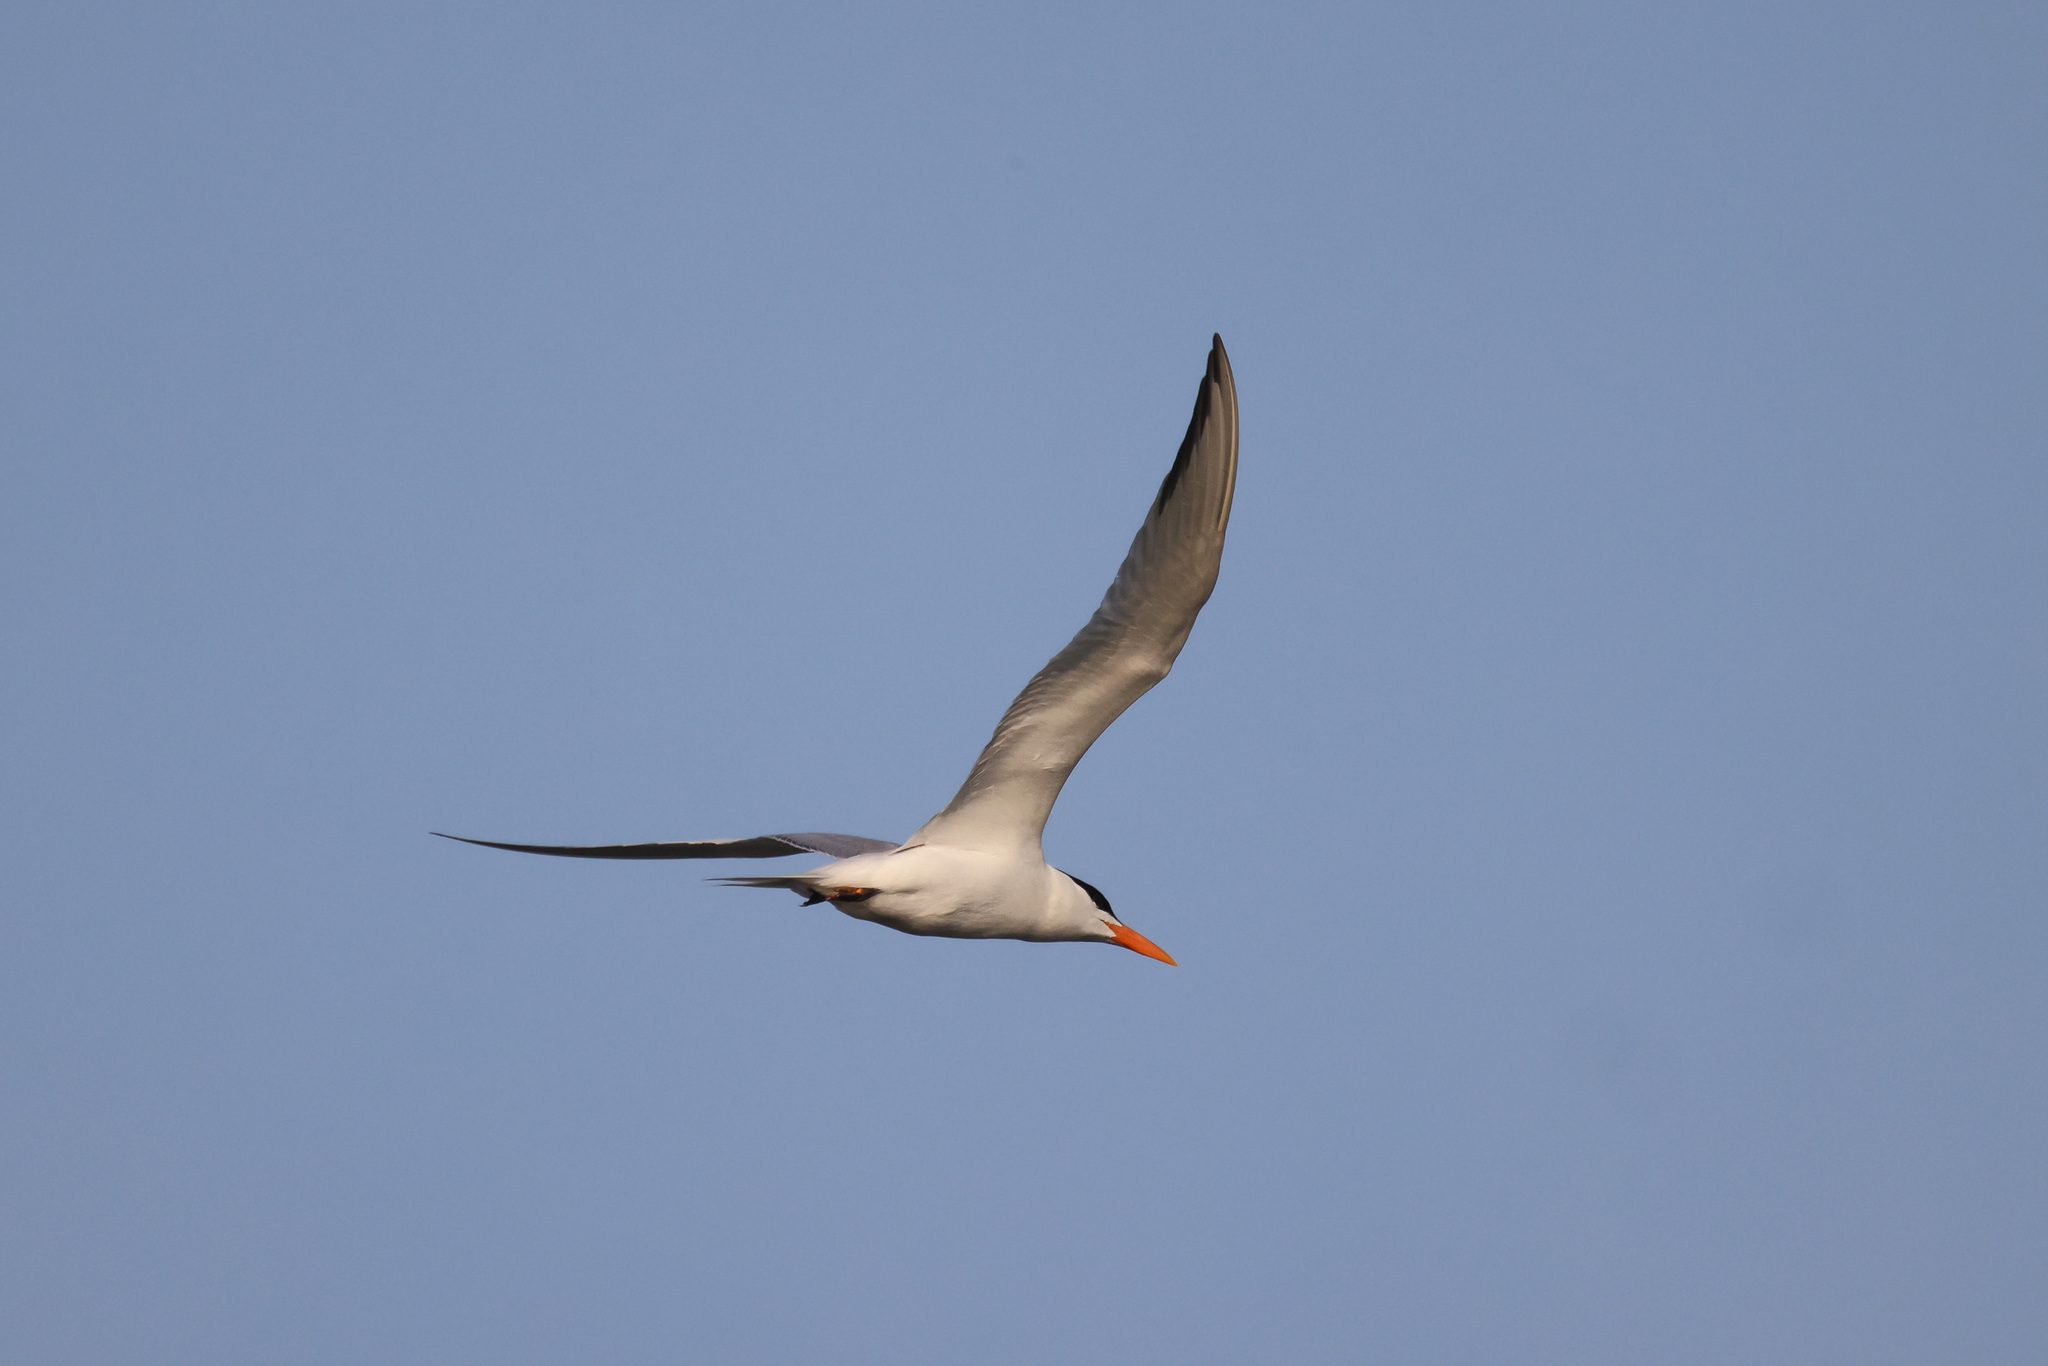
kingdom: Animalia
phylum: Chordata
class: Aves
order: Charadriiformes
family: Laridae
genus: Thalasseus
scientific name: Thalasseus maximus
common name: Royal tern
